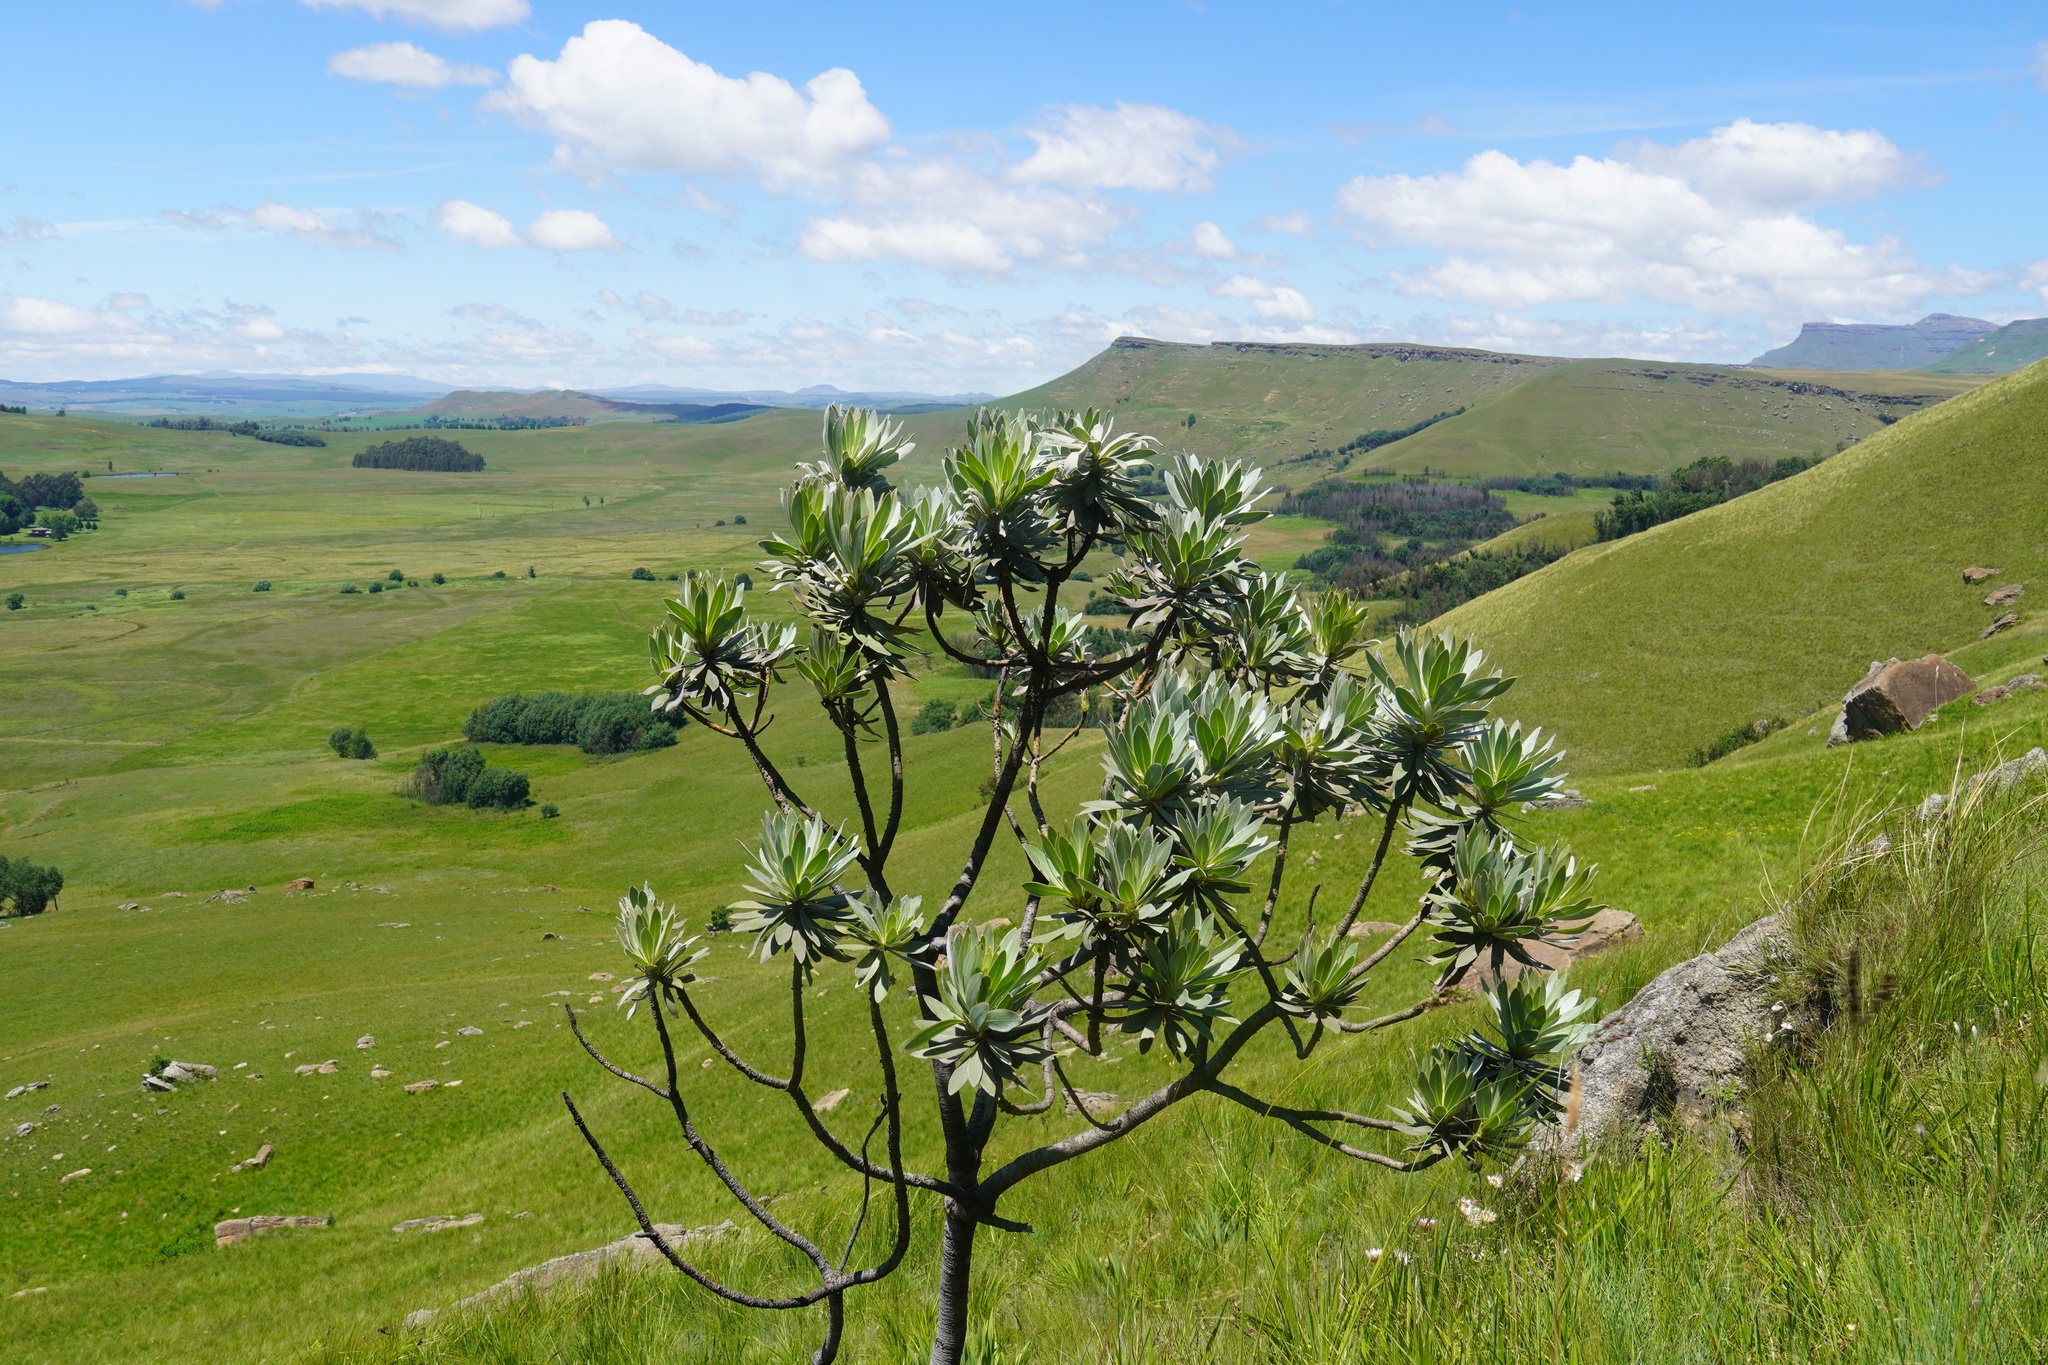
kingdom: Plantae
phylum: Tracheophyta
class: Magnoliopsida
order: Proteales
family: Proteaceae
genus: Protea
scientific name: Protea roupelliae
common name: Silver sugarbush
